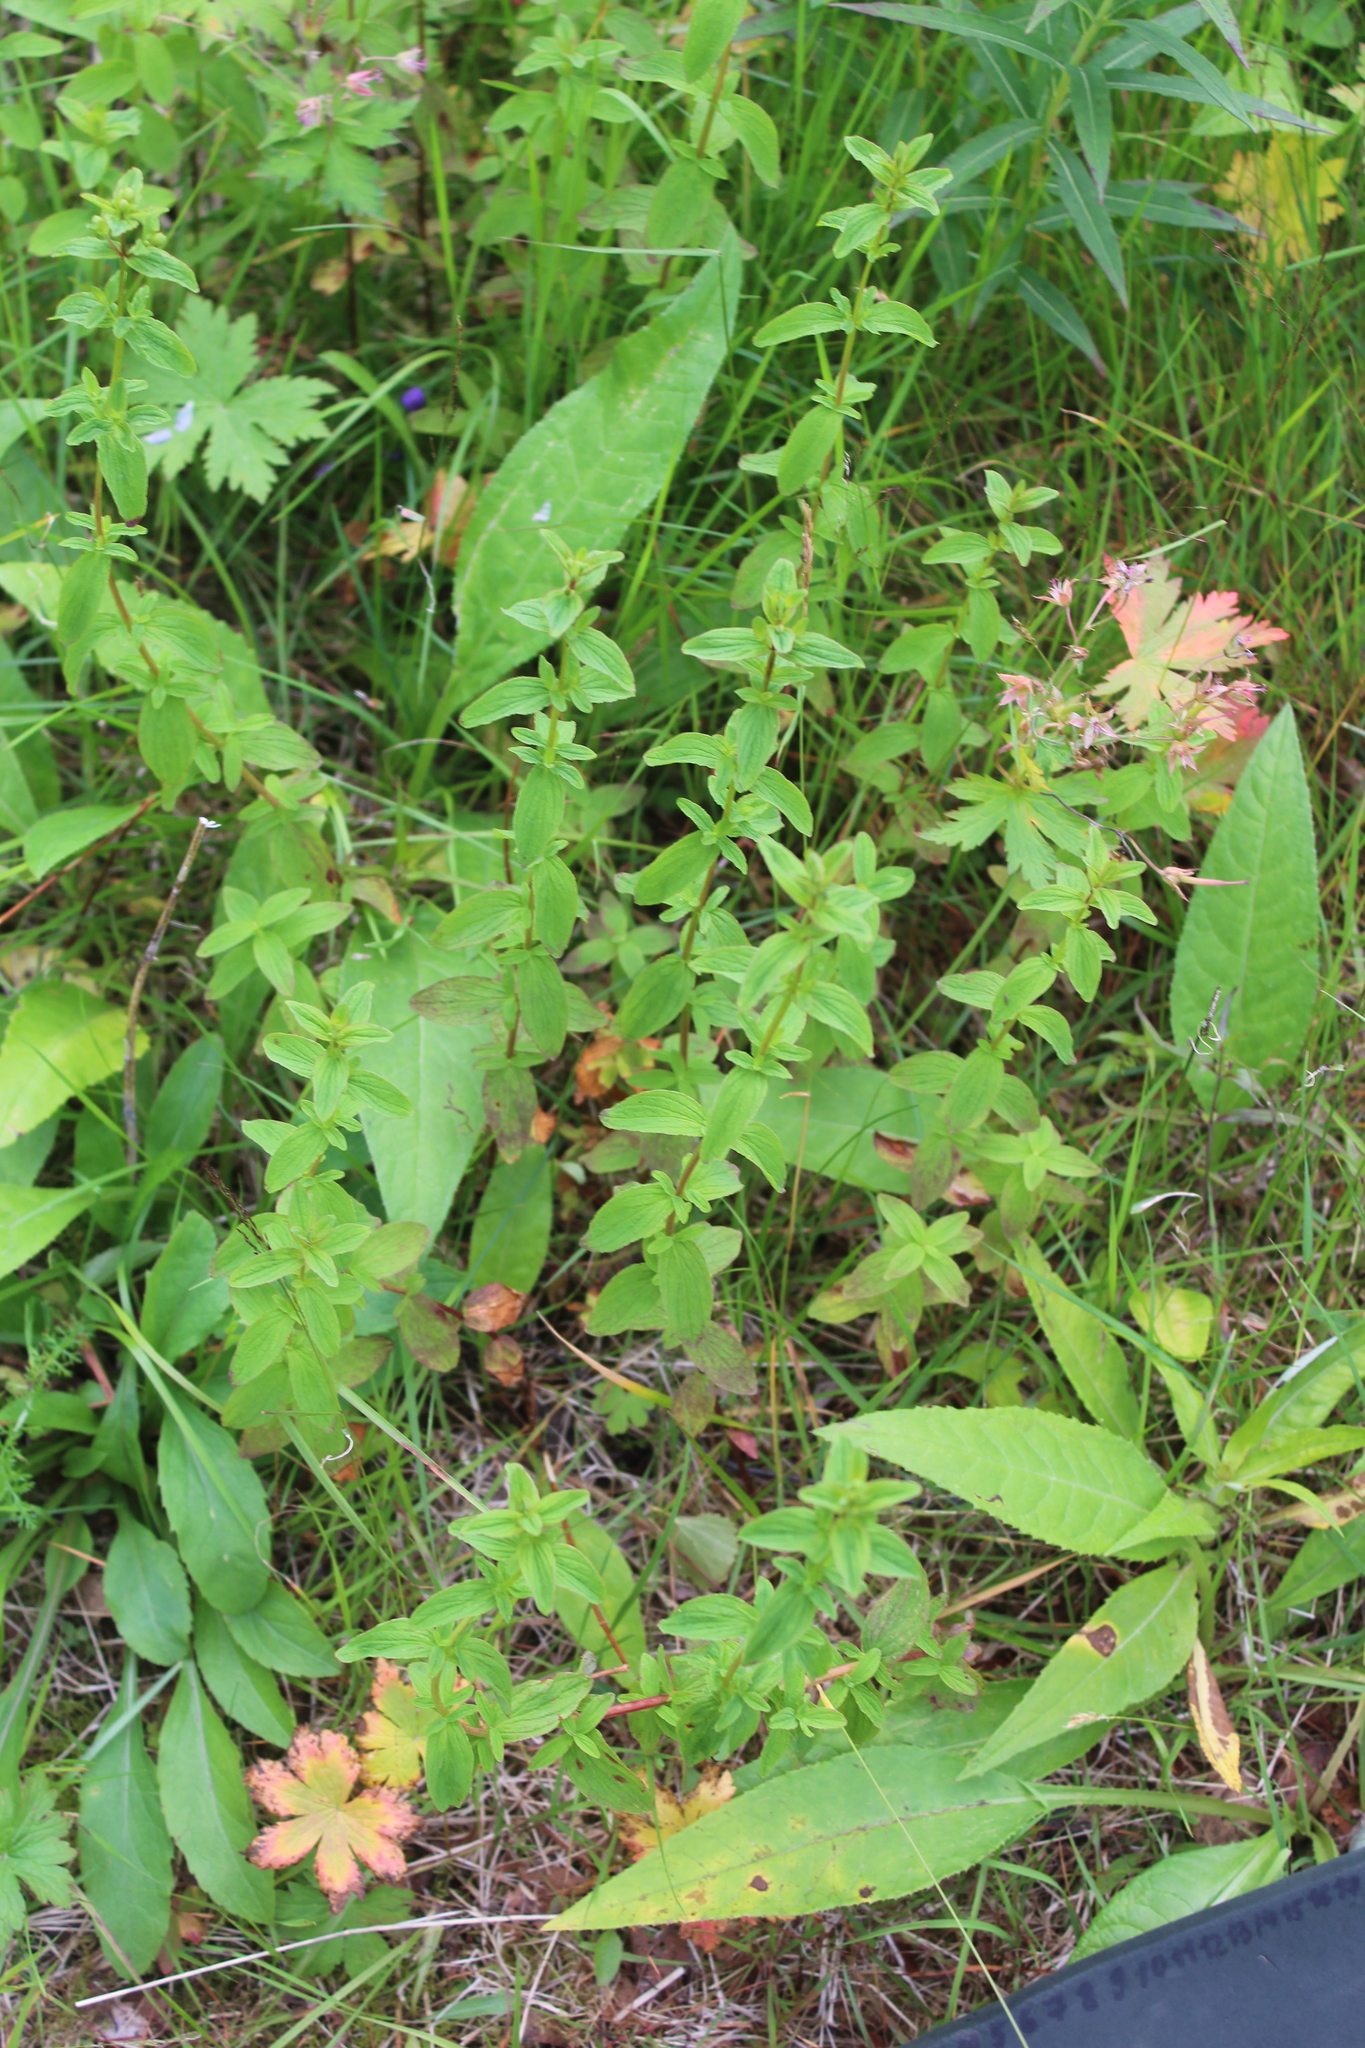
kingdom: Plantae
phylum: Tracheophyta
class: Magnoliopsida
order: Malpighiales
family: Hypericaceae
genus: Hypericum
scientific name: Hypericum maculatum
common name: Imperforate st. john's-wort
